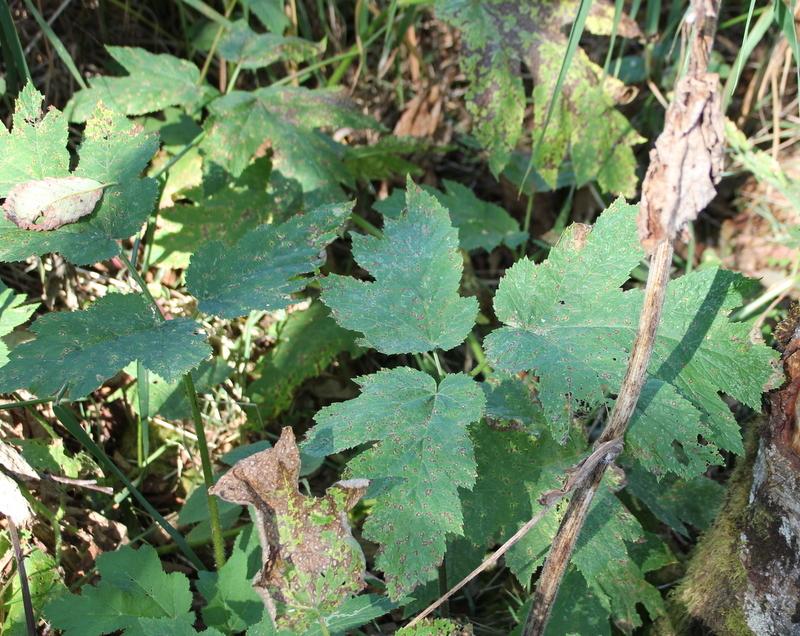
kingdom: Plantae
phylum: Tracheophyta
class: Magnoliopsida
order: Apiales
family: Apiaceae
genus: Heracleum
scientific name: Heracleum maximum
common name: American cow parsnip
